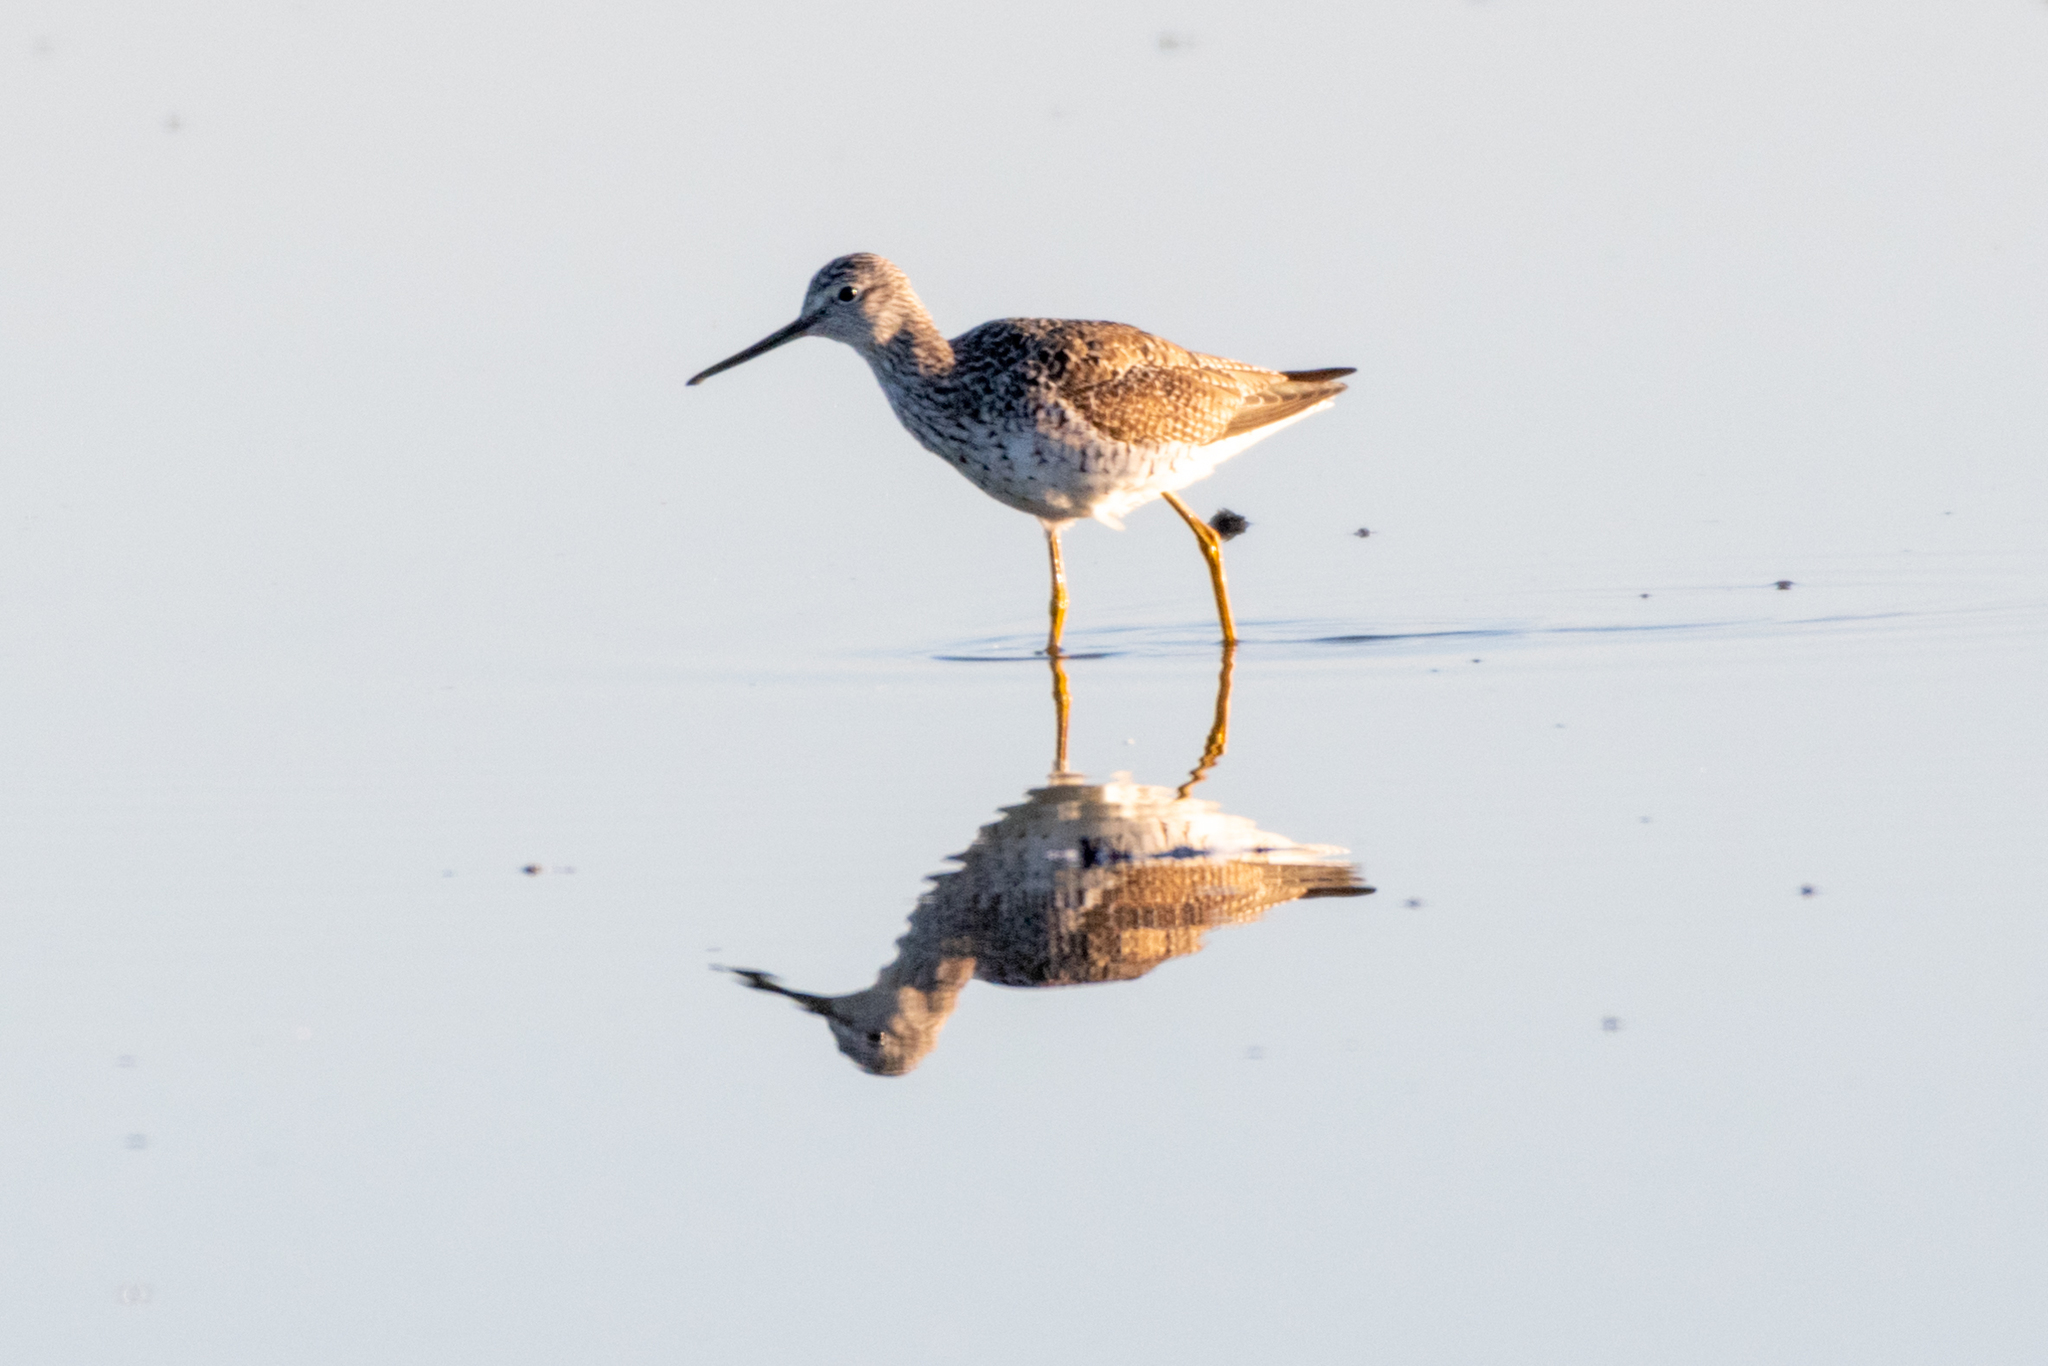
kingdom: Animalia
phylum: Chordata
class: Aves
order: Charadriiformes
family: Scolopacidae
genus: Tringa
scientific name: Tringa melanoleuca
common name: Greater yellowlegs
